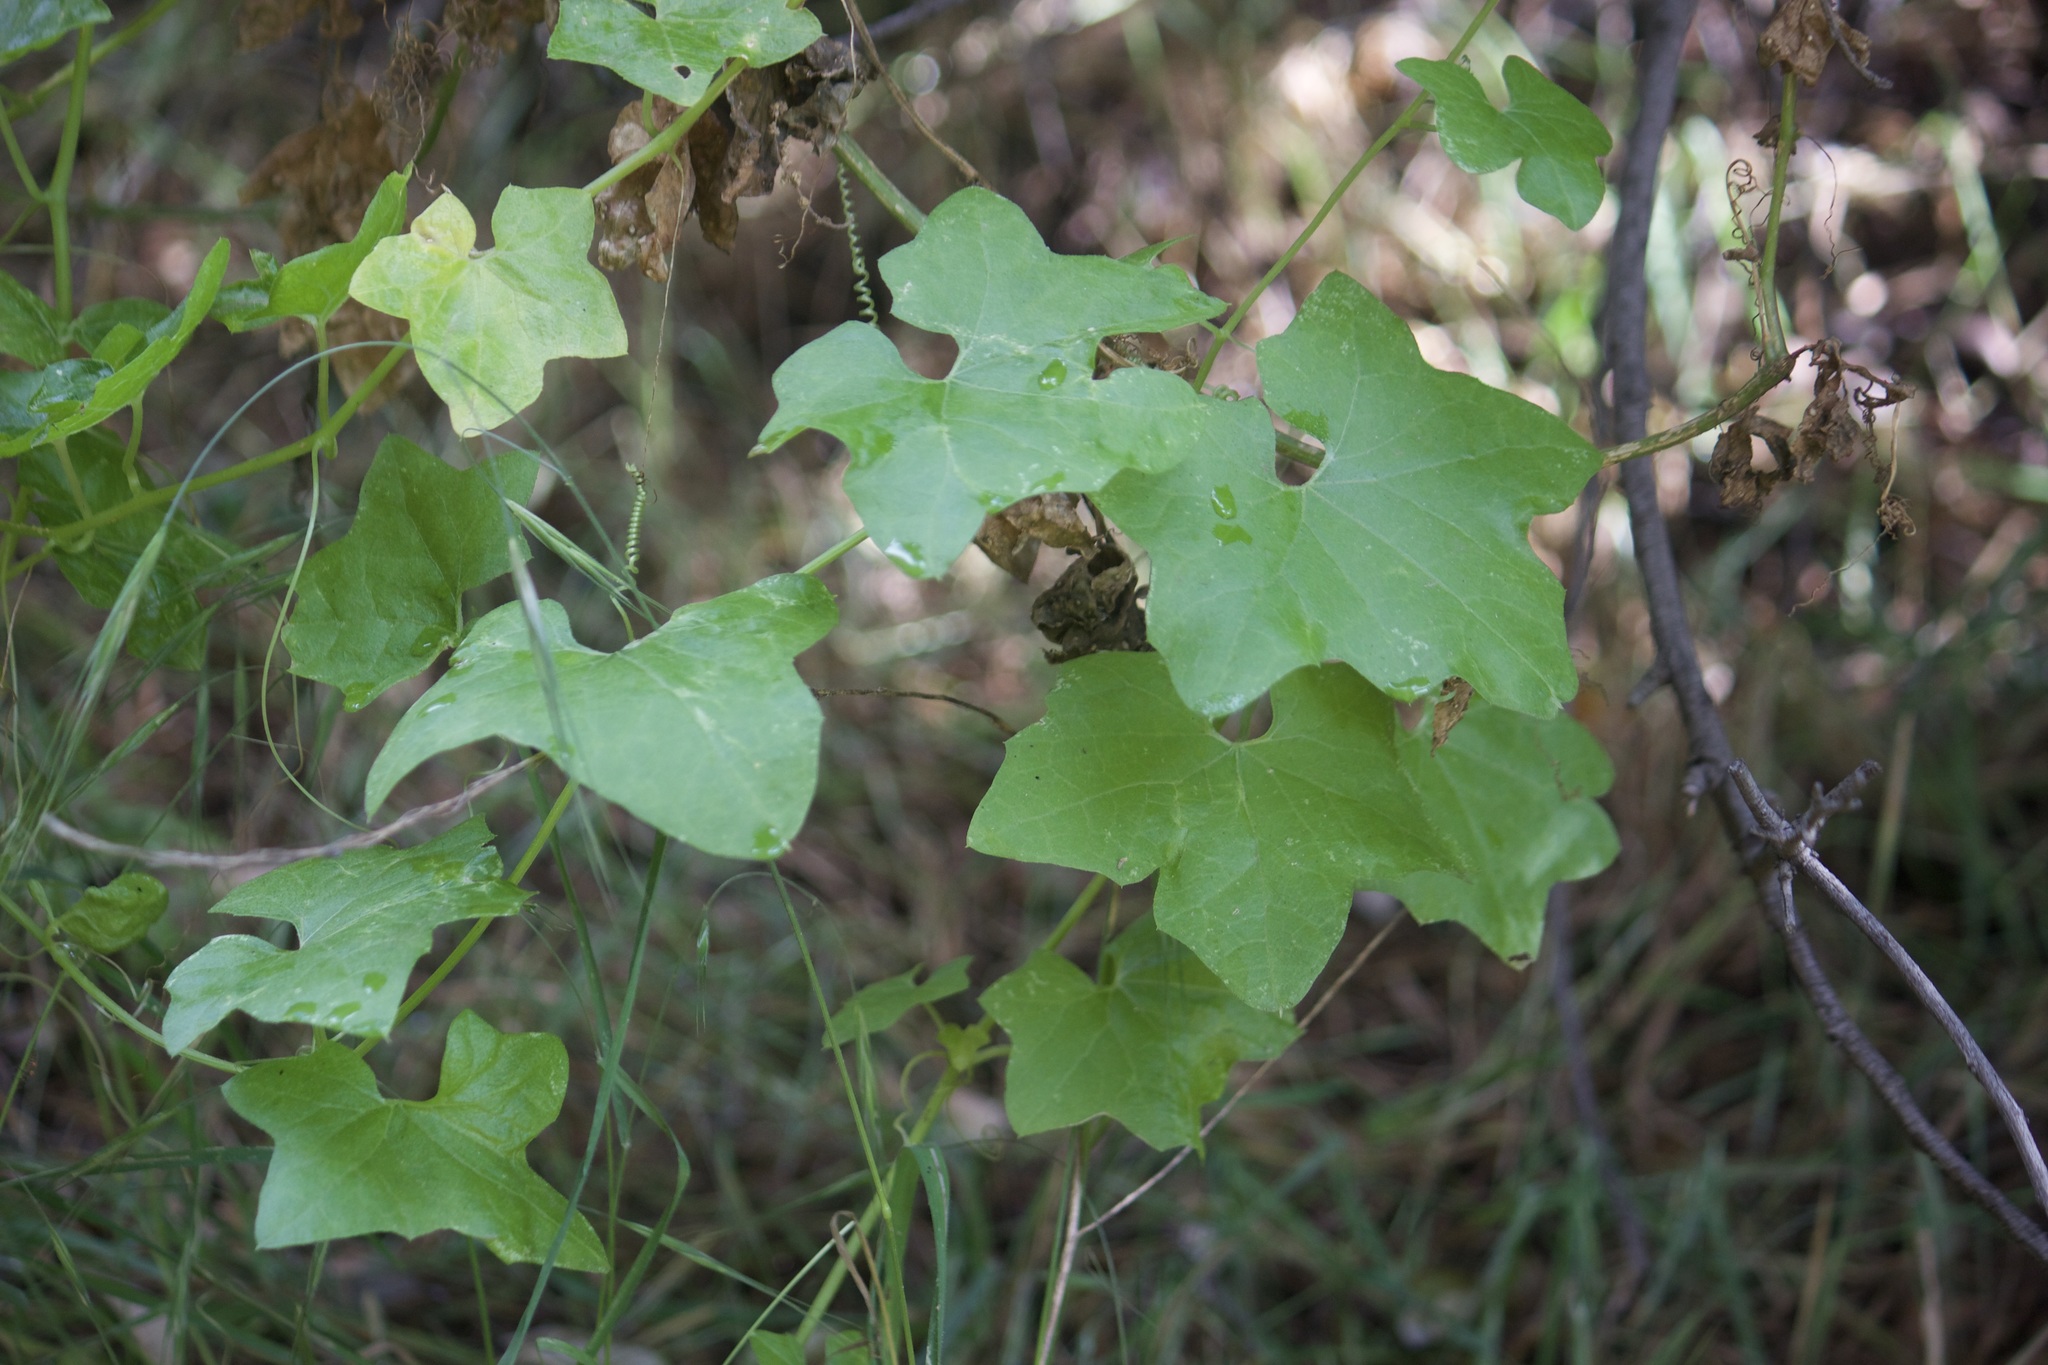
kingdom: Plantae
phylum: Tracheophyta
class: Magnoliopsida
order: Cucurbitales
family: Cucurbitaceae
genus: Marah
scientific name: Marah macrocarpa
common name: Cucamonga manroot
